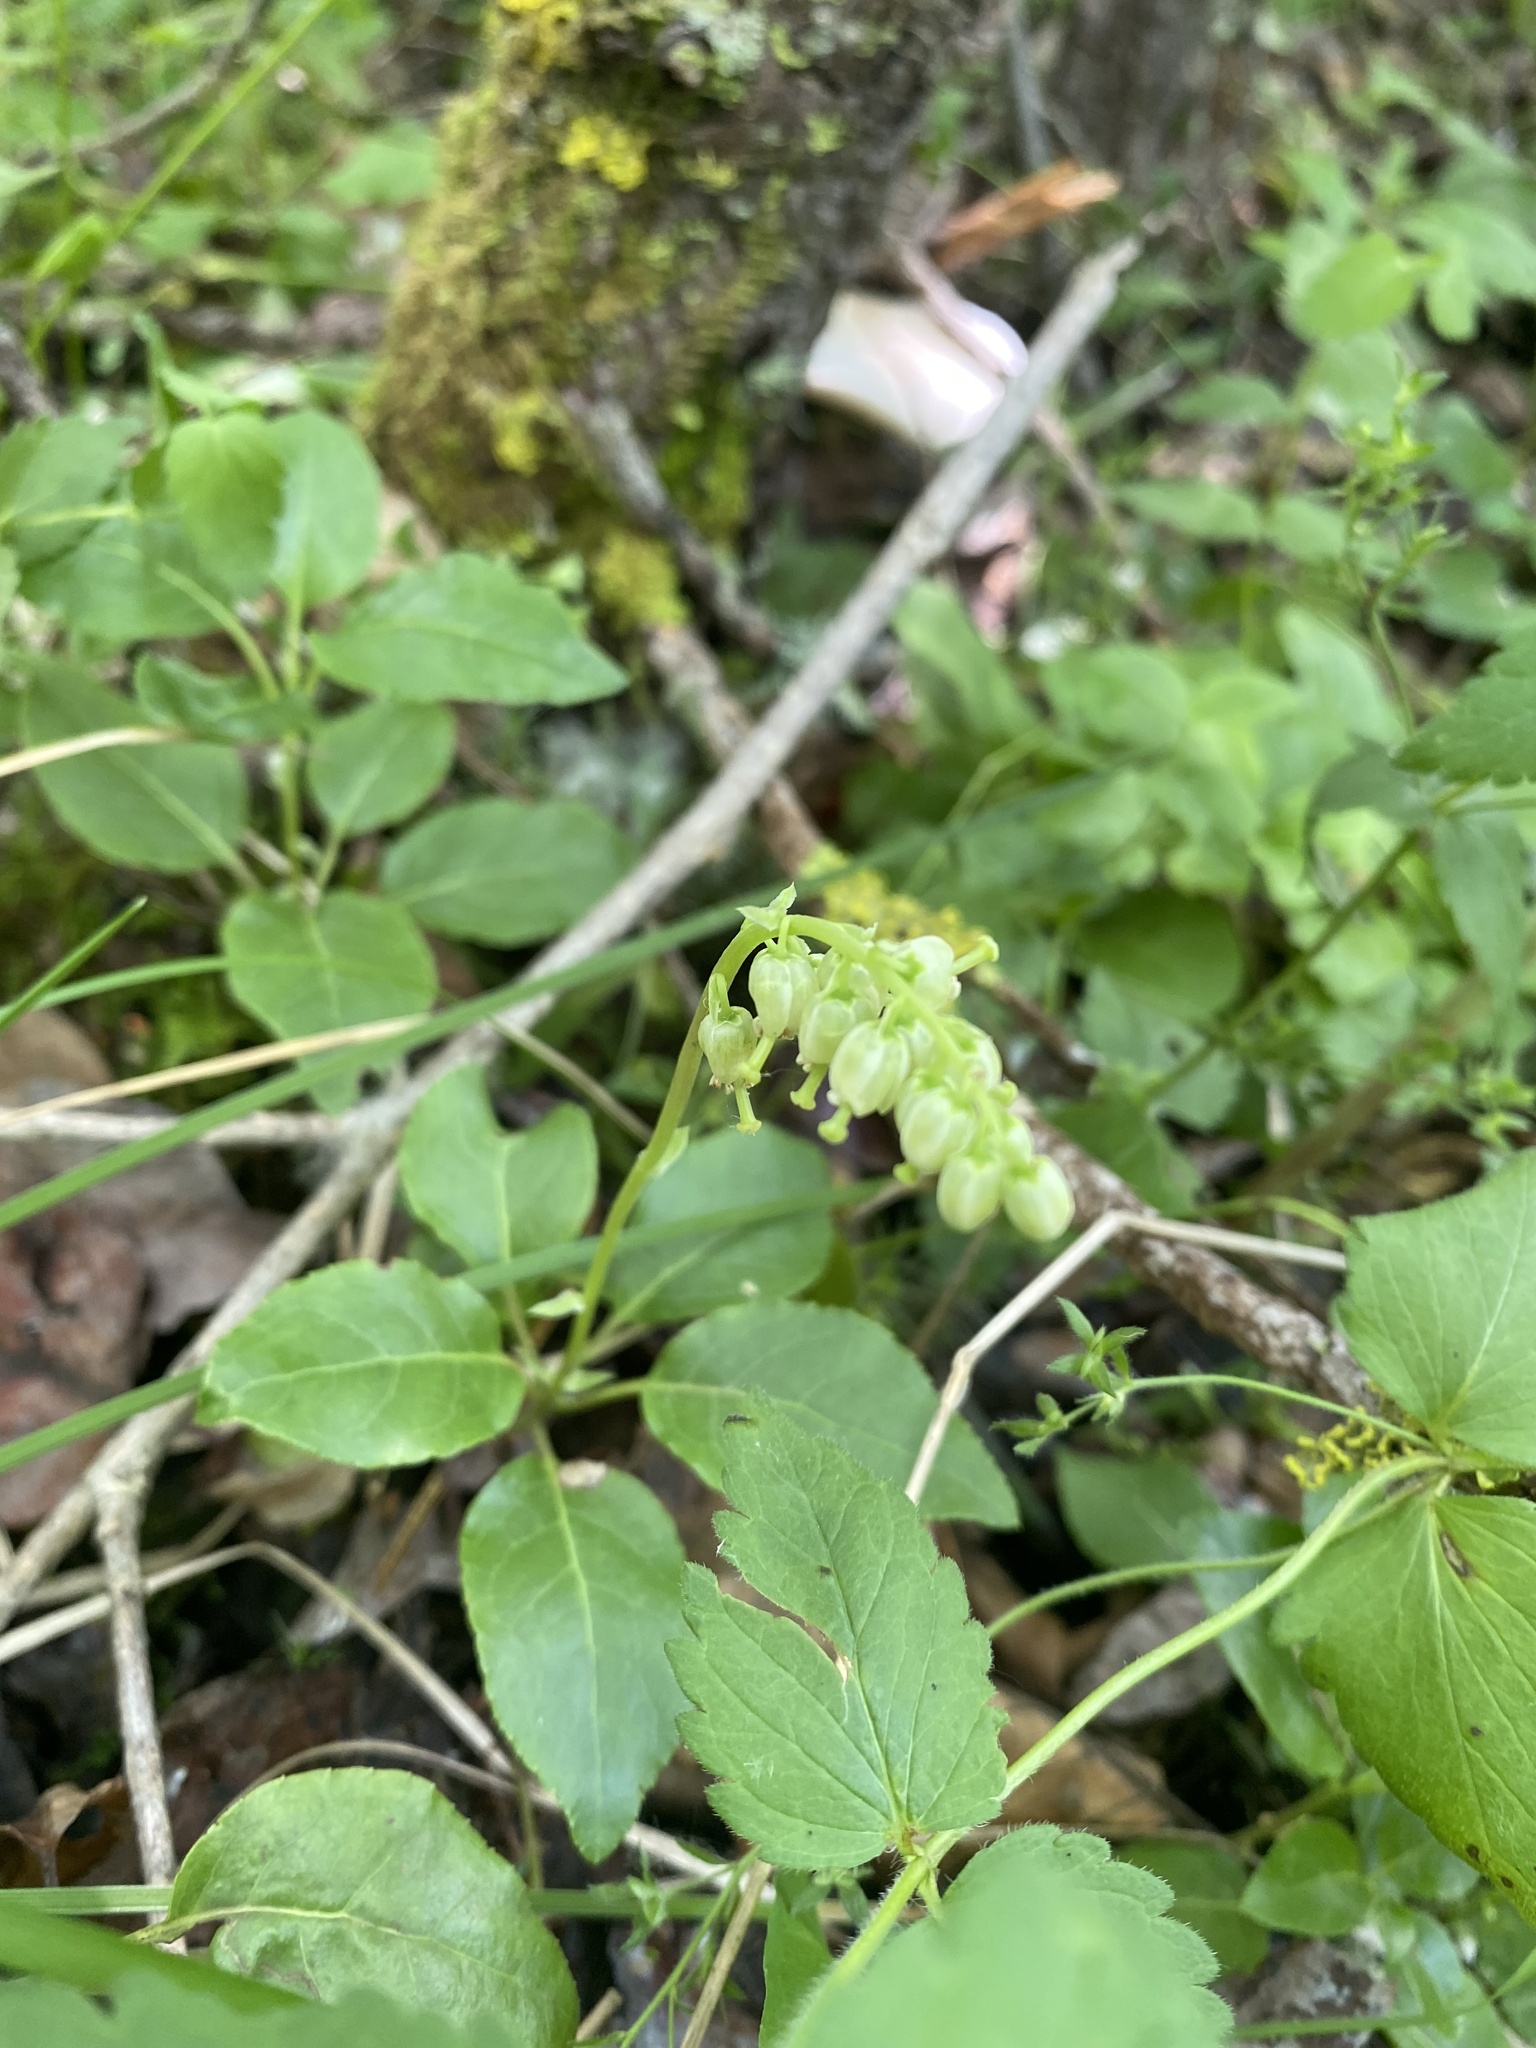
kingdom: Plantae
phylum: Tracheophyta
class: Magnoliopsida
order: Ericales
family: Ericaceae
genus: Orthilia
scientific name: Orthilia secunda
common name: One-sided orthilia
